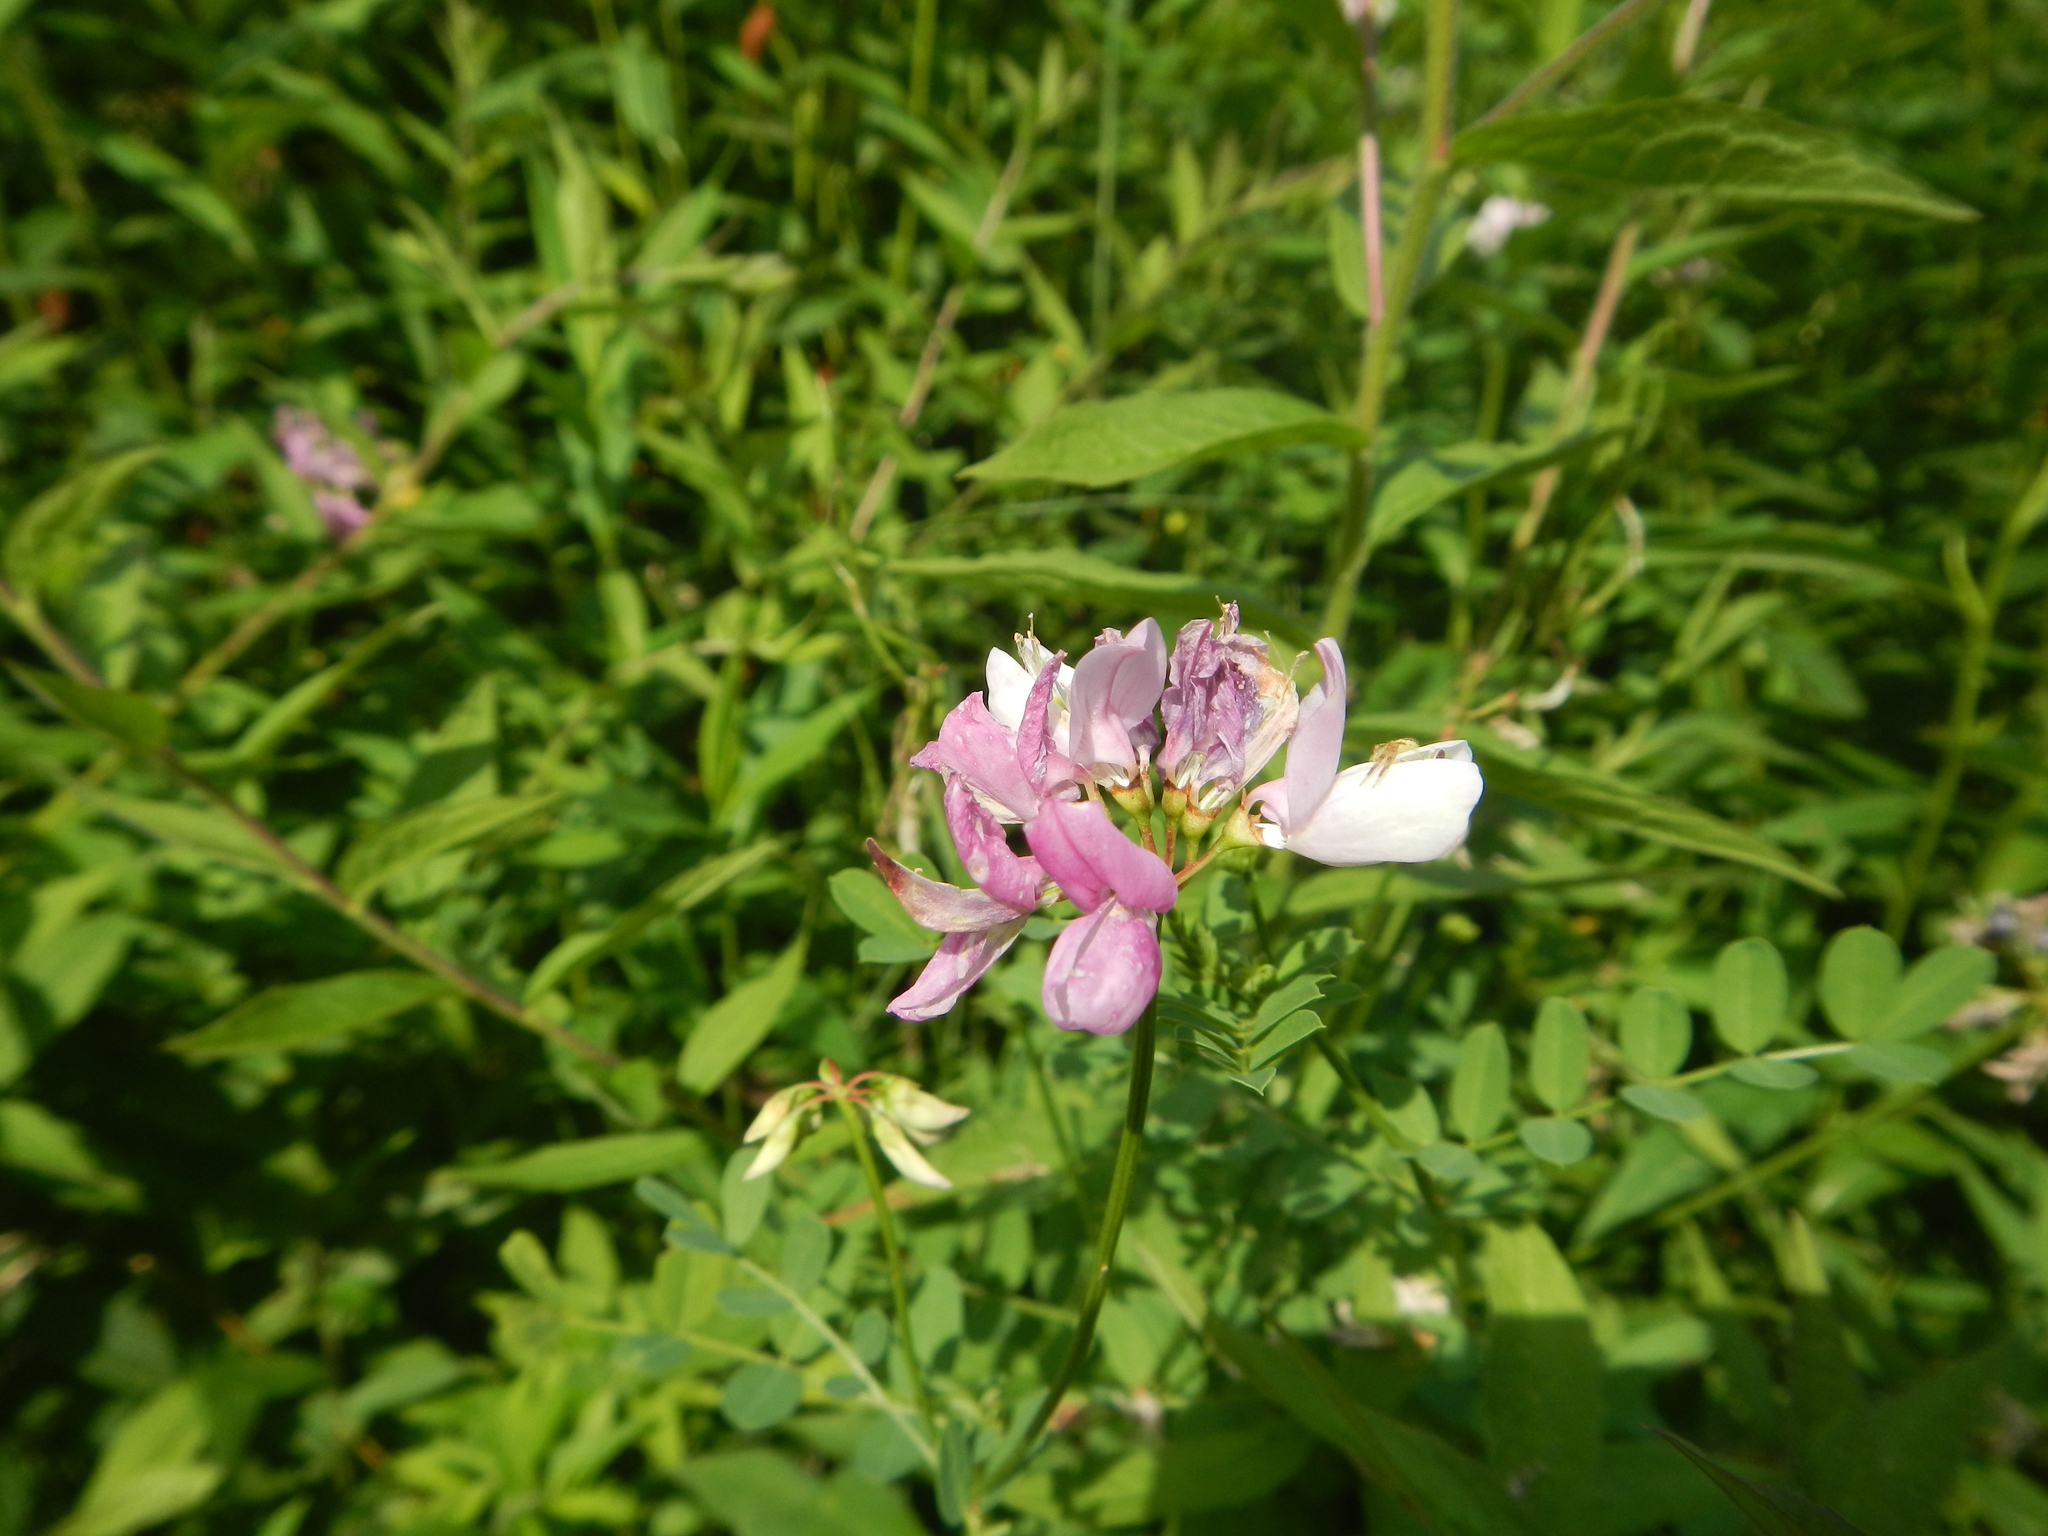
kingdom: Plantae
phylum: Tracheophyta
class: Magnoliopsida
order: Fabales
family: Fabaceae
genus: Coronilla
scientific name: Coronilla varia
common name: Crownvetch
